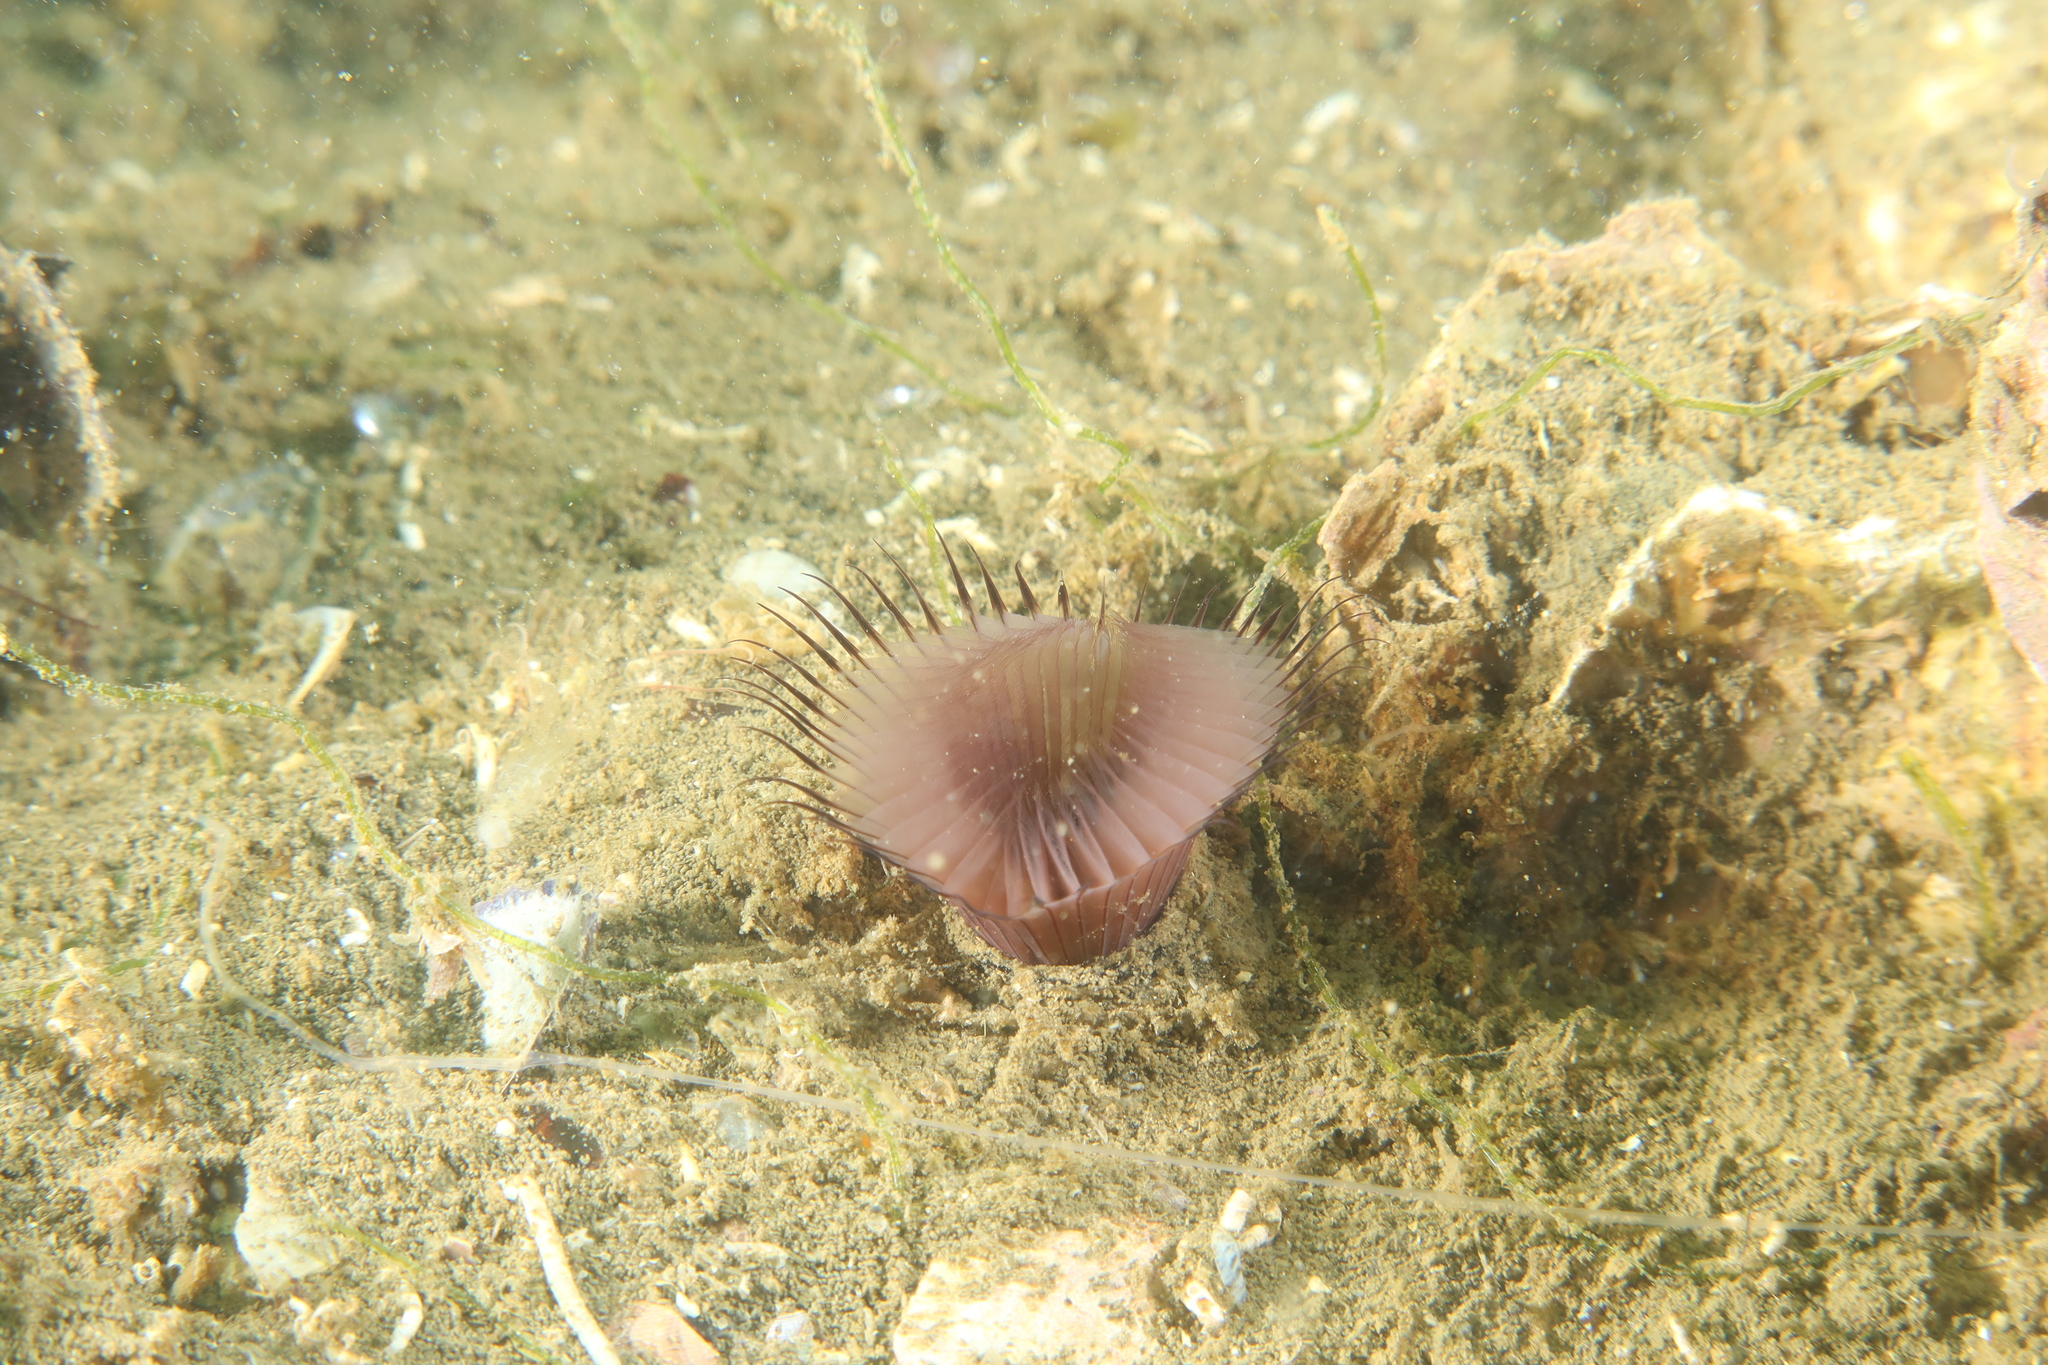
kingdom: Animalia
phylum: Annelida
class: Polychaeta
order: Sabellida
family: Sabellidae
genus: Myxicola
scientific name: Myxicola infundibulum
